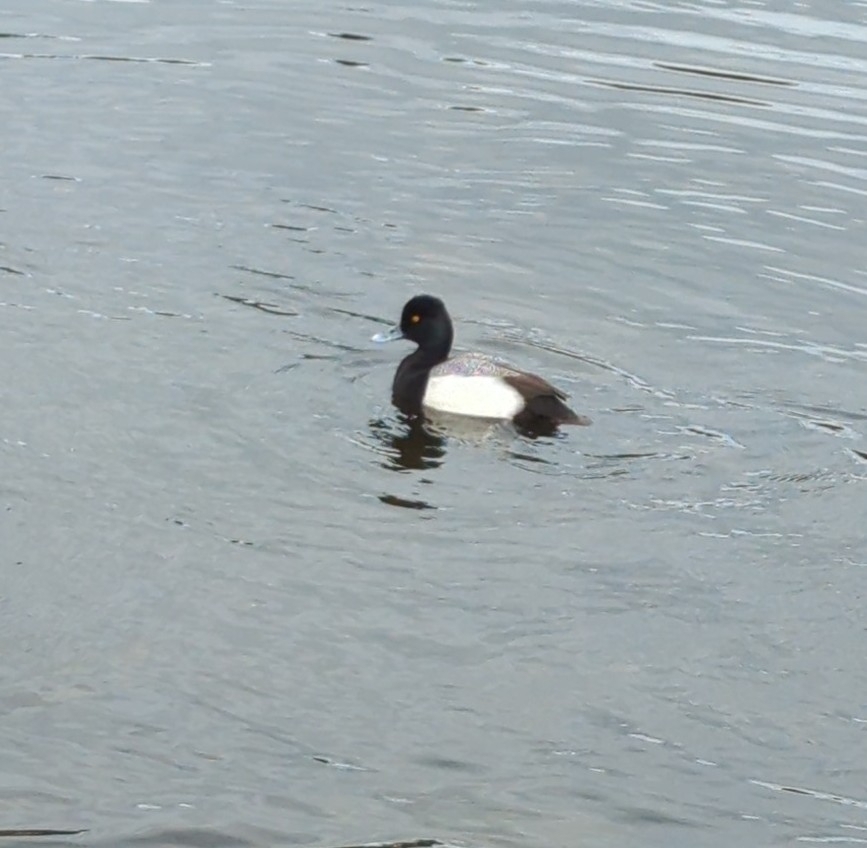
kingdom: Animalia
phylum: Chordata
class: Aves
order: Anseriformes
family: Anatidae
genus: Aythya
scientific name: Aythya affinis
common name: Lesser scaup
